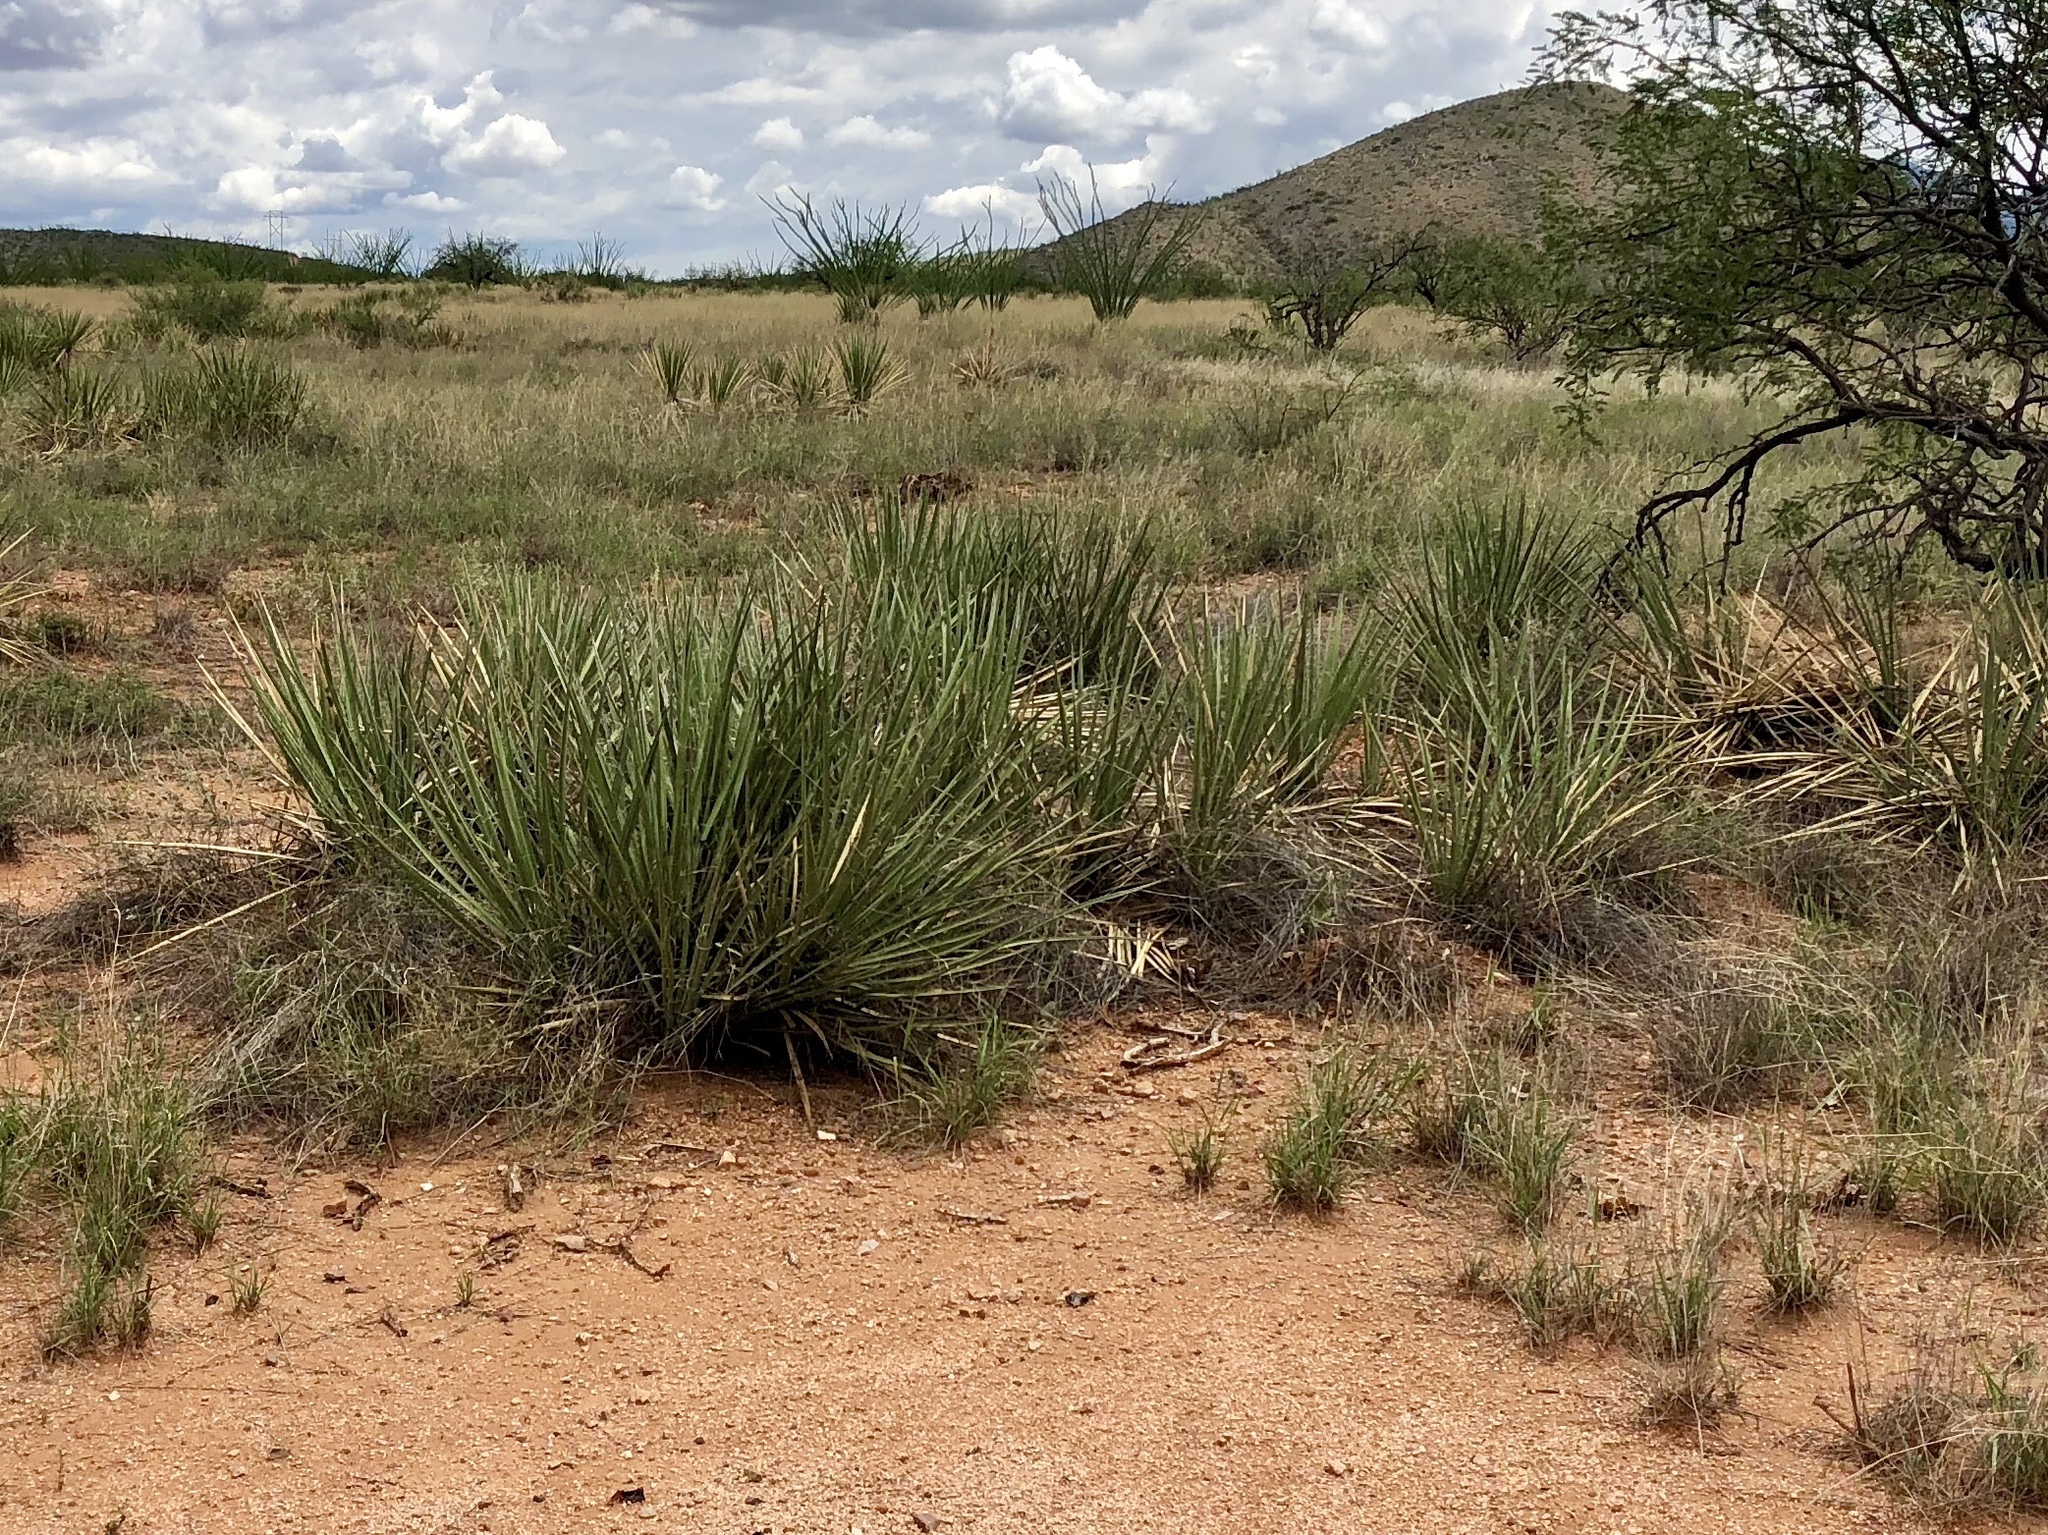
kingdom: Plantae
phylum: Tracheophyta
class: Liliopsida
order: Asparagales
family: Asparagaceae
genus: Yucca
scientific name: Yucca baccata
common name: Banana yucca
